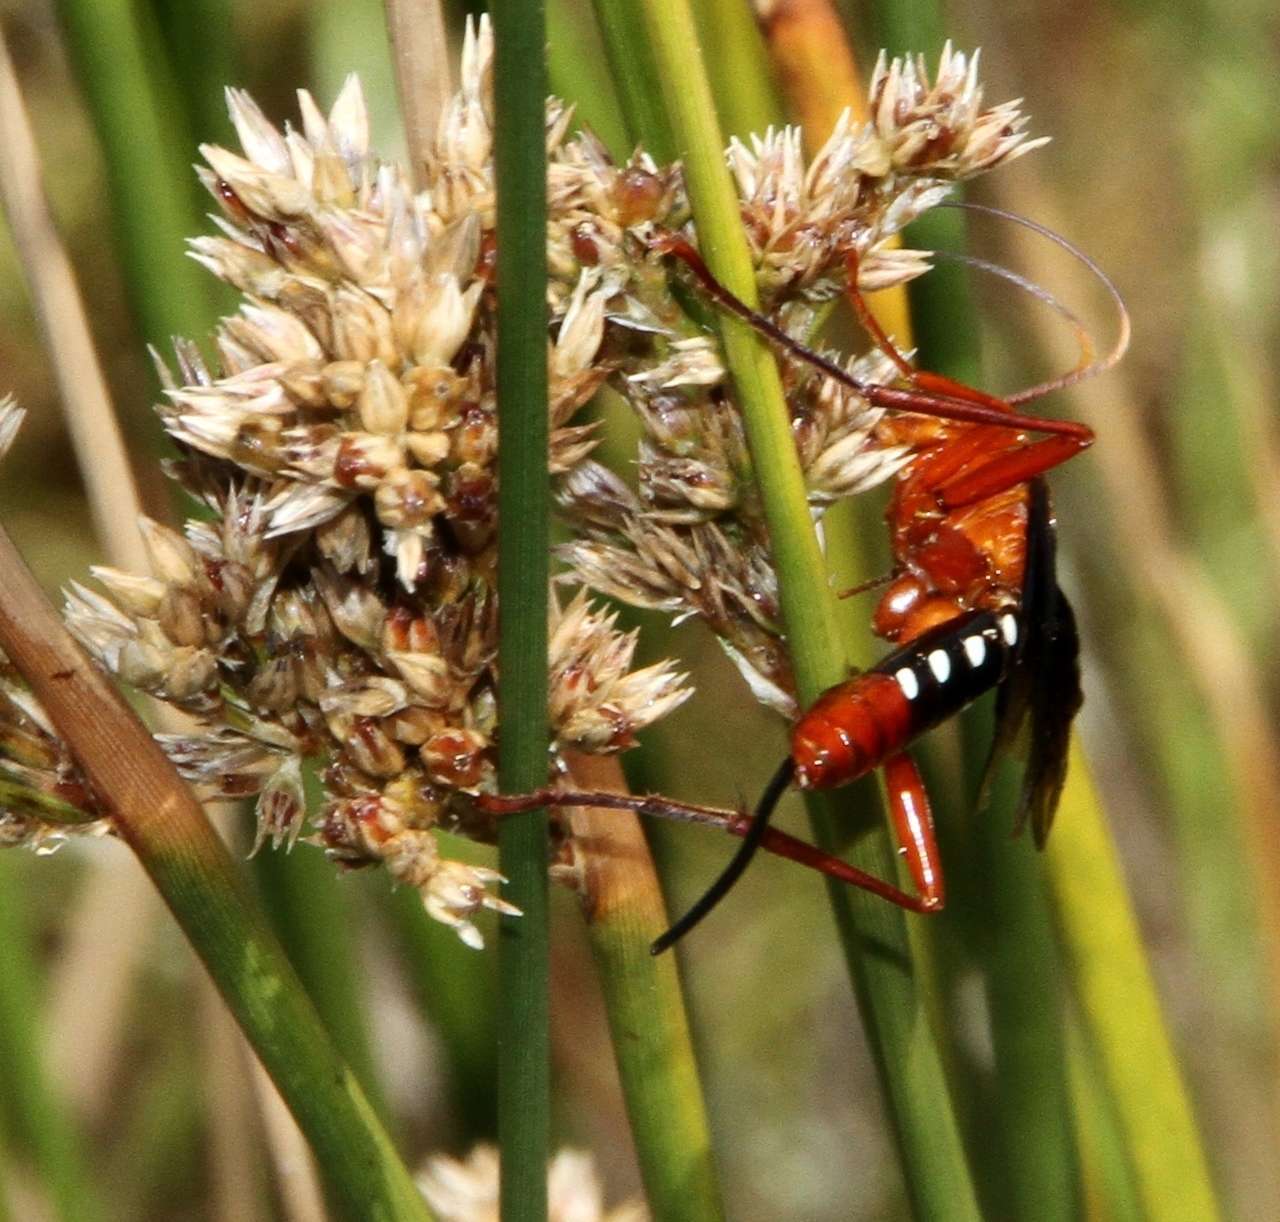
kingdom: Animalia
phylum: Arthropoda
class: Insecta
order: Hymenoptera
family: Ichneumonidae
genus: Lissopimpla
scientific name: Lissopimpla excelsa
